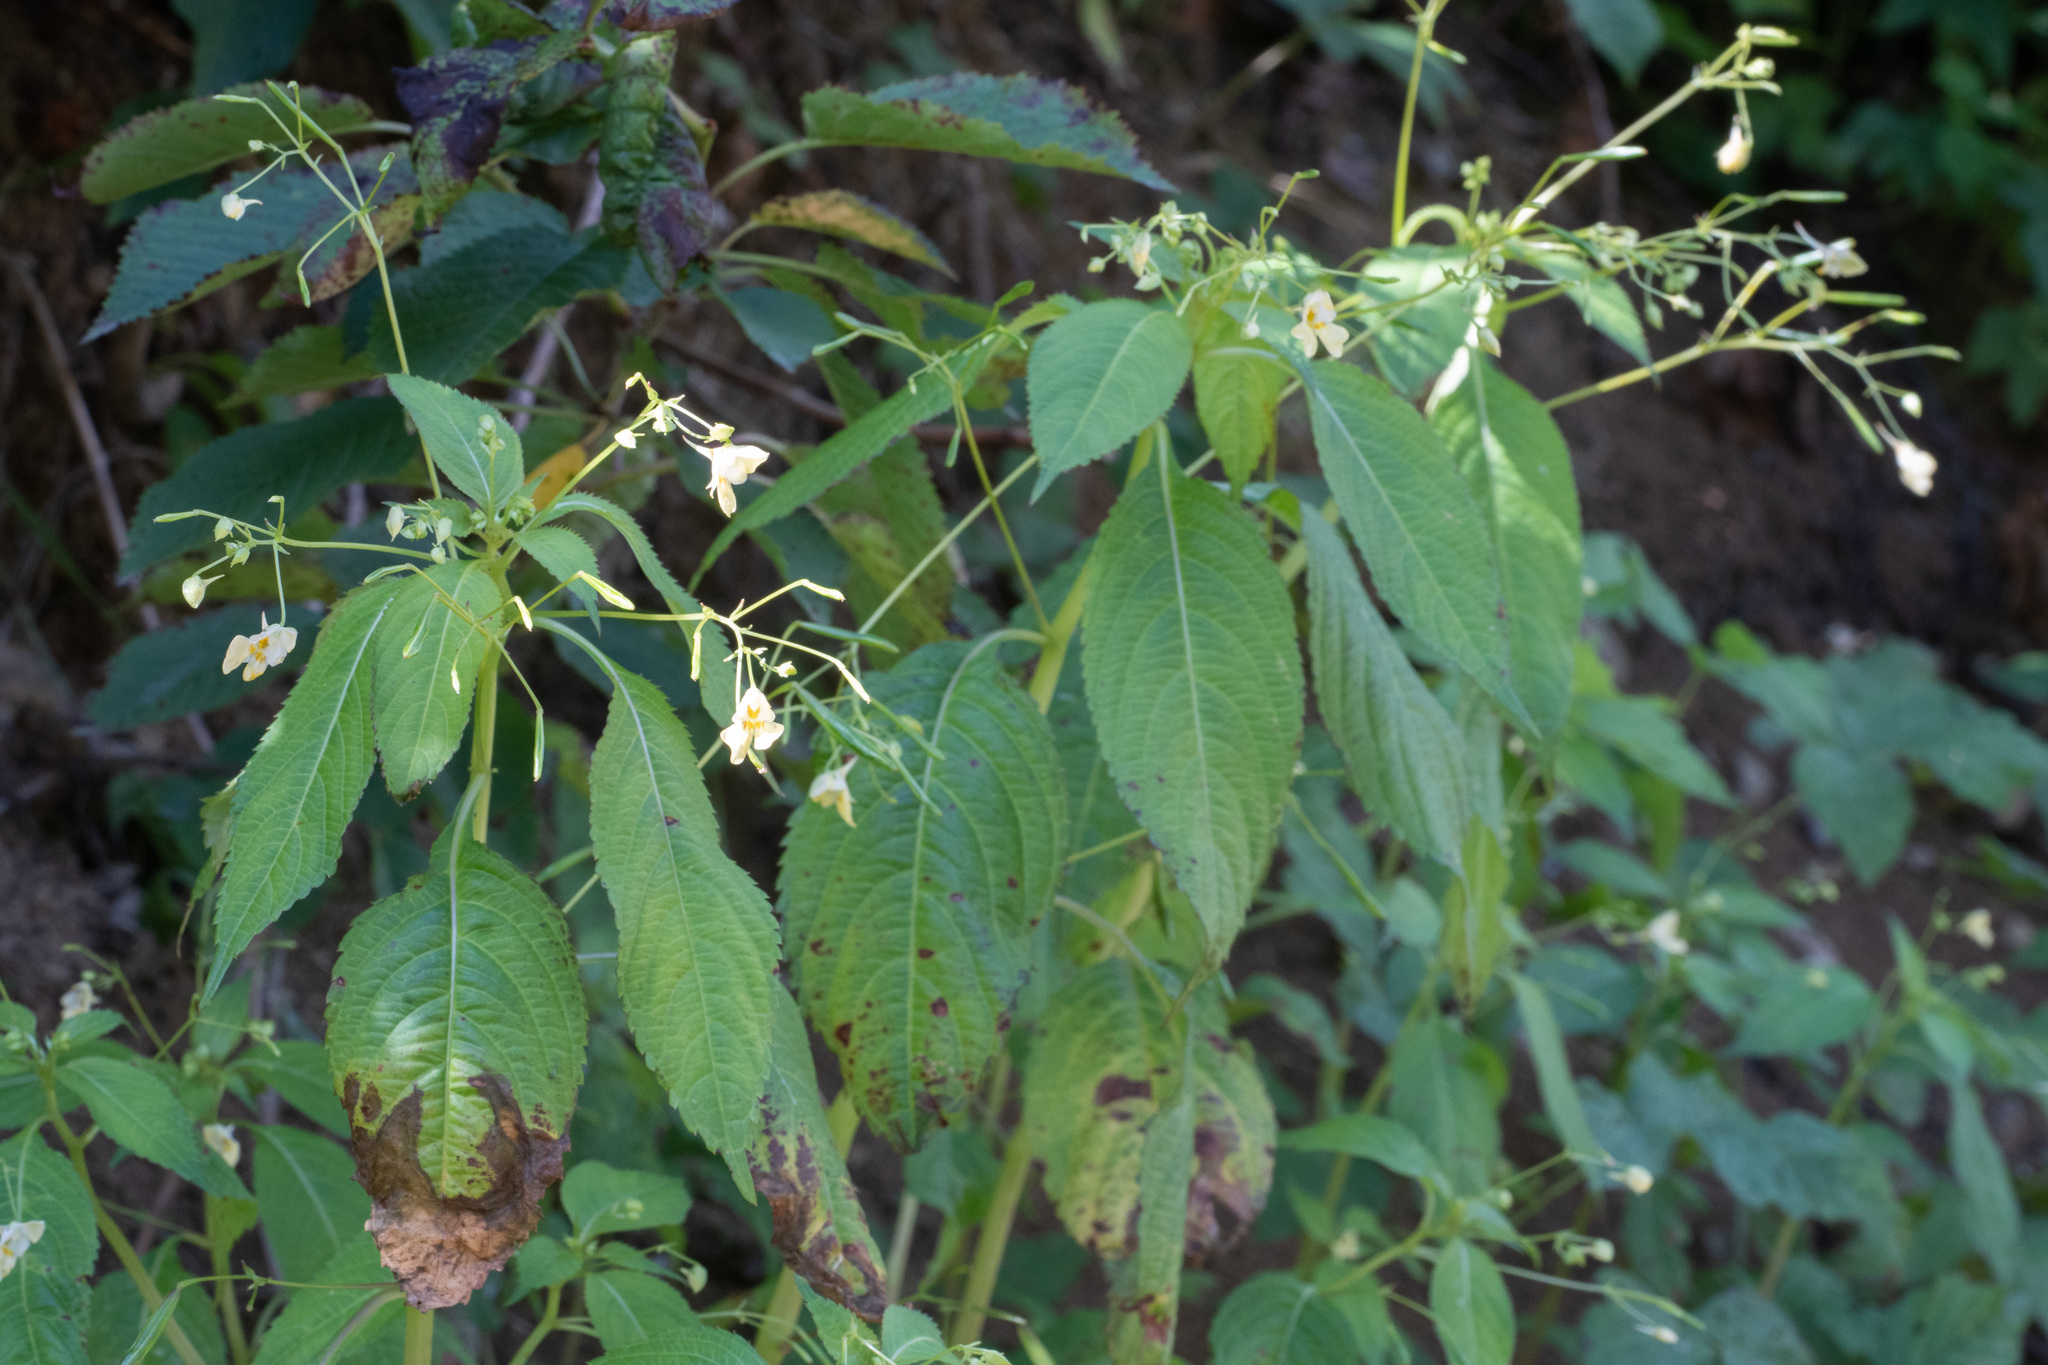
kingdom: Plantae
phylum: Tracheophyta
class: Magnoliopsida
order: Ericales
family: Balsaminaceae
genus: Impatiens
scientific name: Impatiens parviflora
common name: Small balsam
